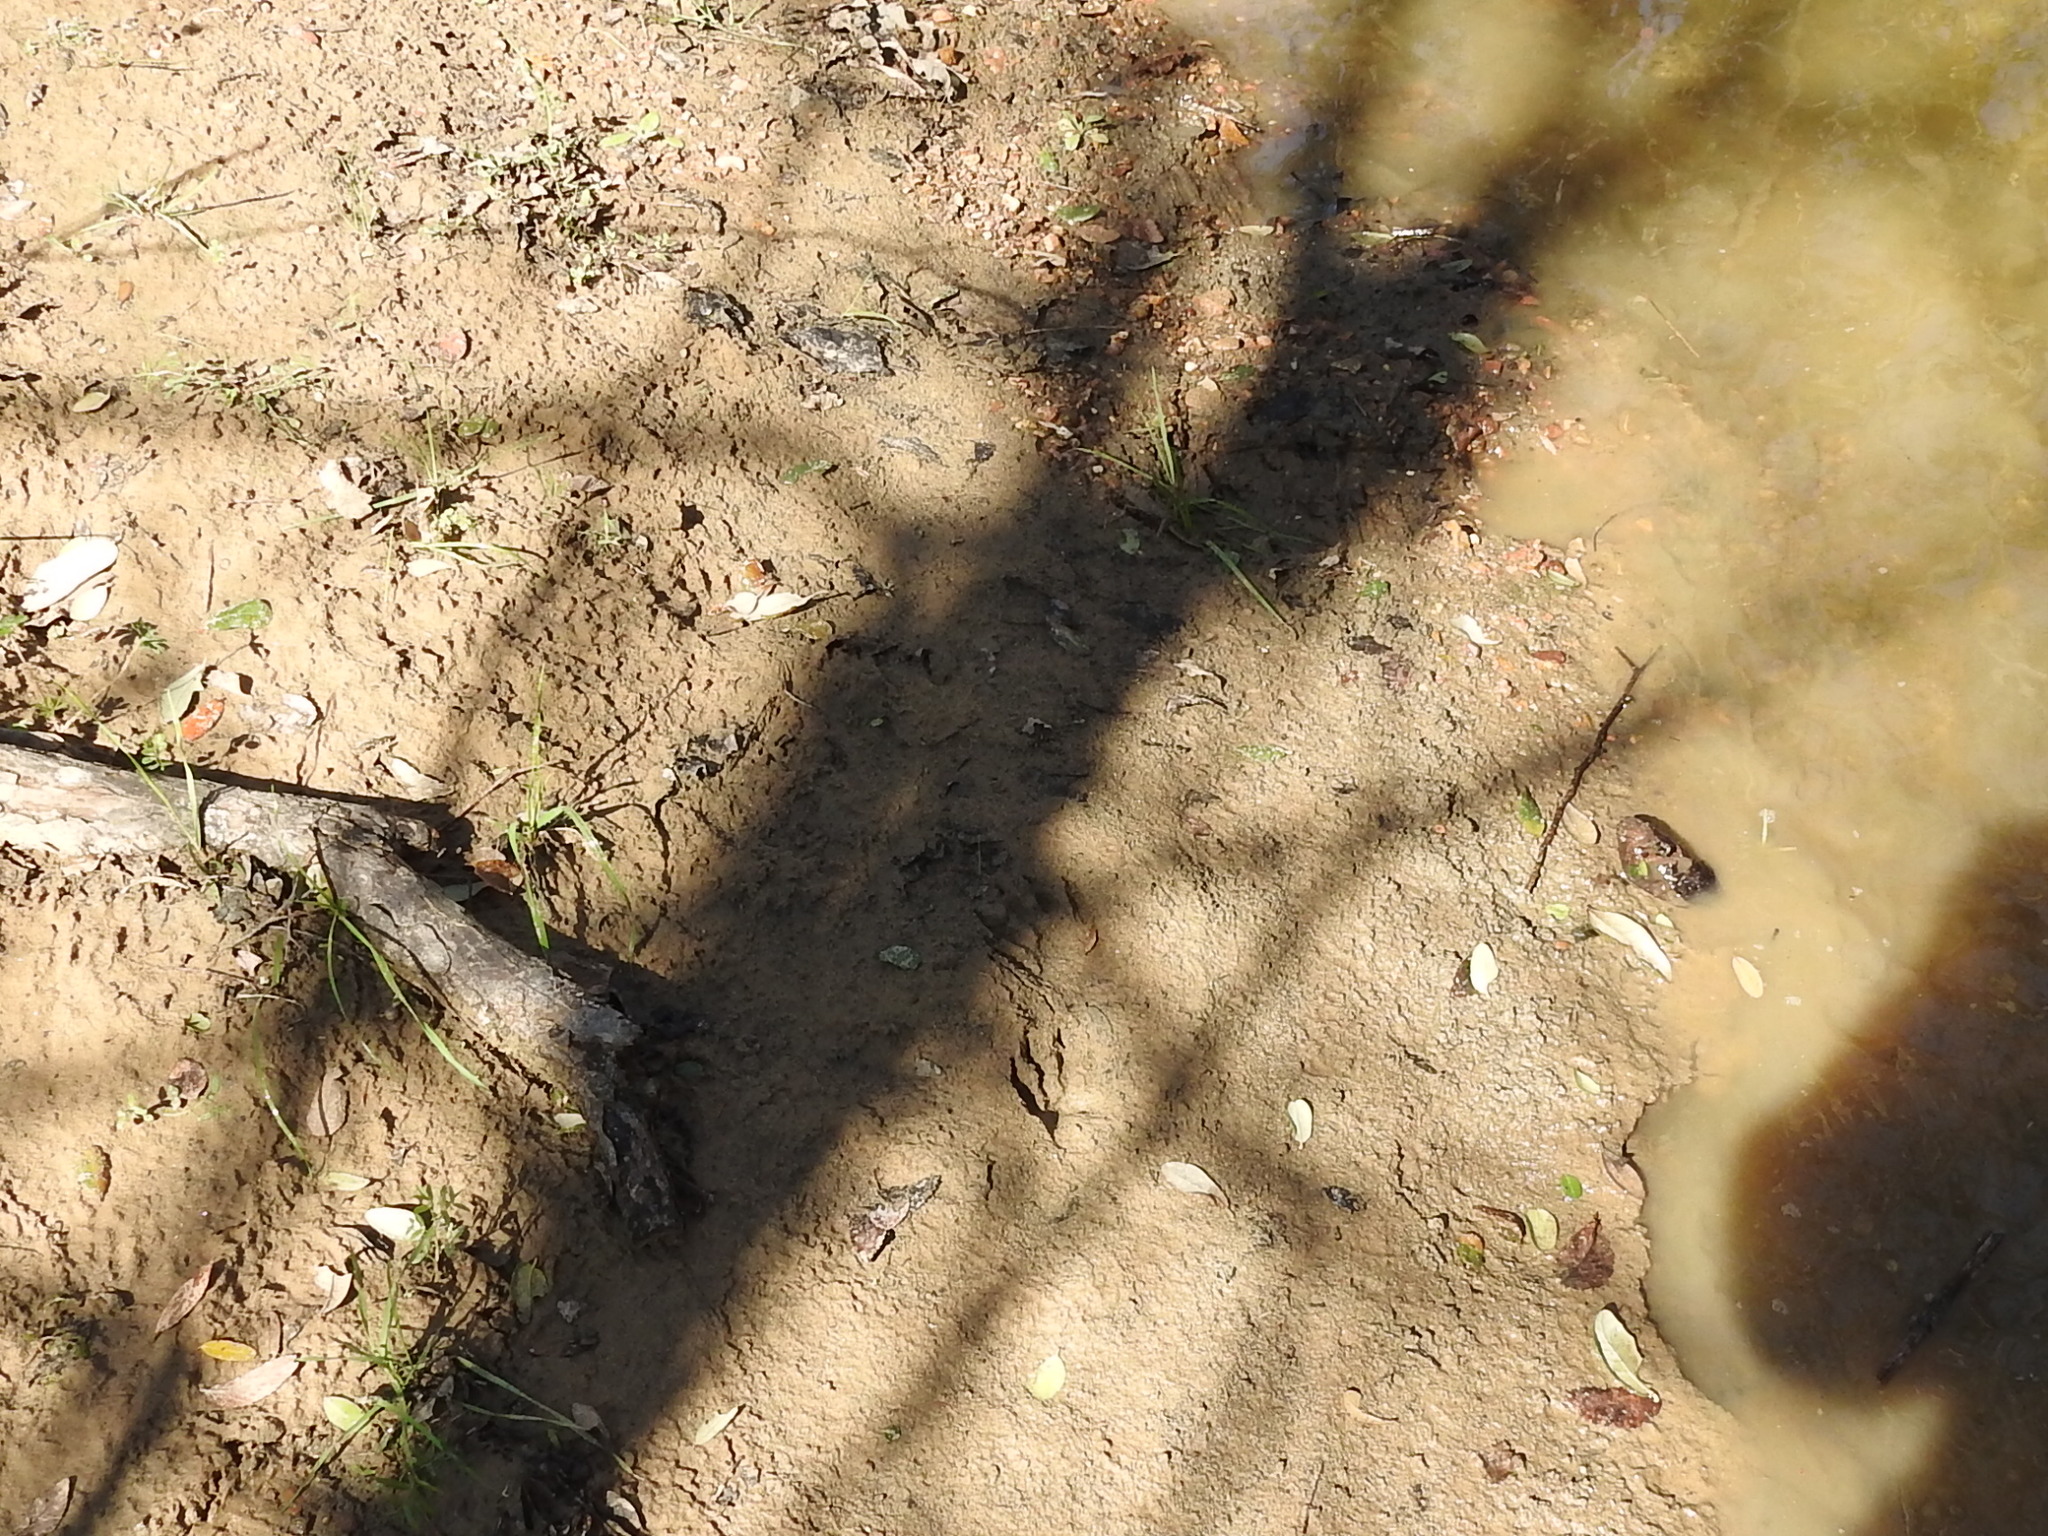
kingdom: Animalia
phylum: Chordata
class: Mammalia
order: Carnivora
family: Procyonidae
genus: Procyon
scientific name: Procyon lotor
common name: Raccoon
